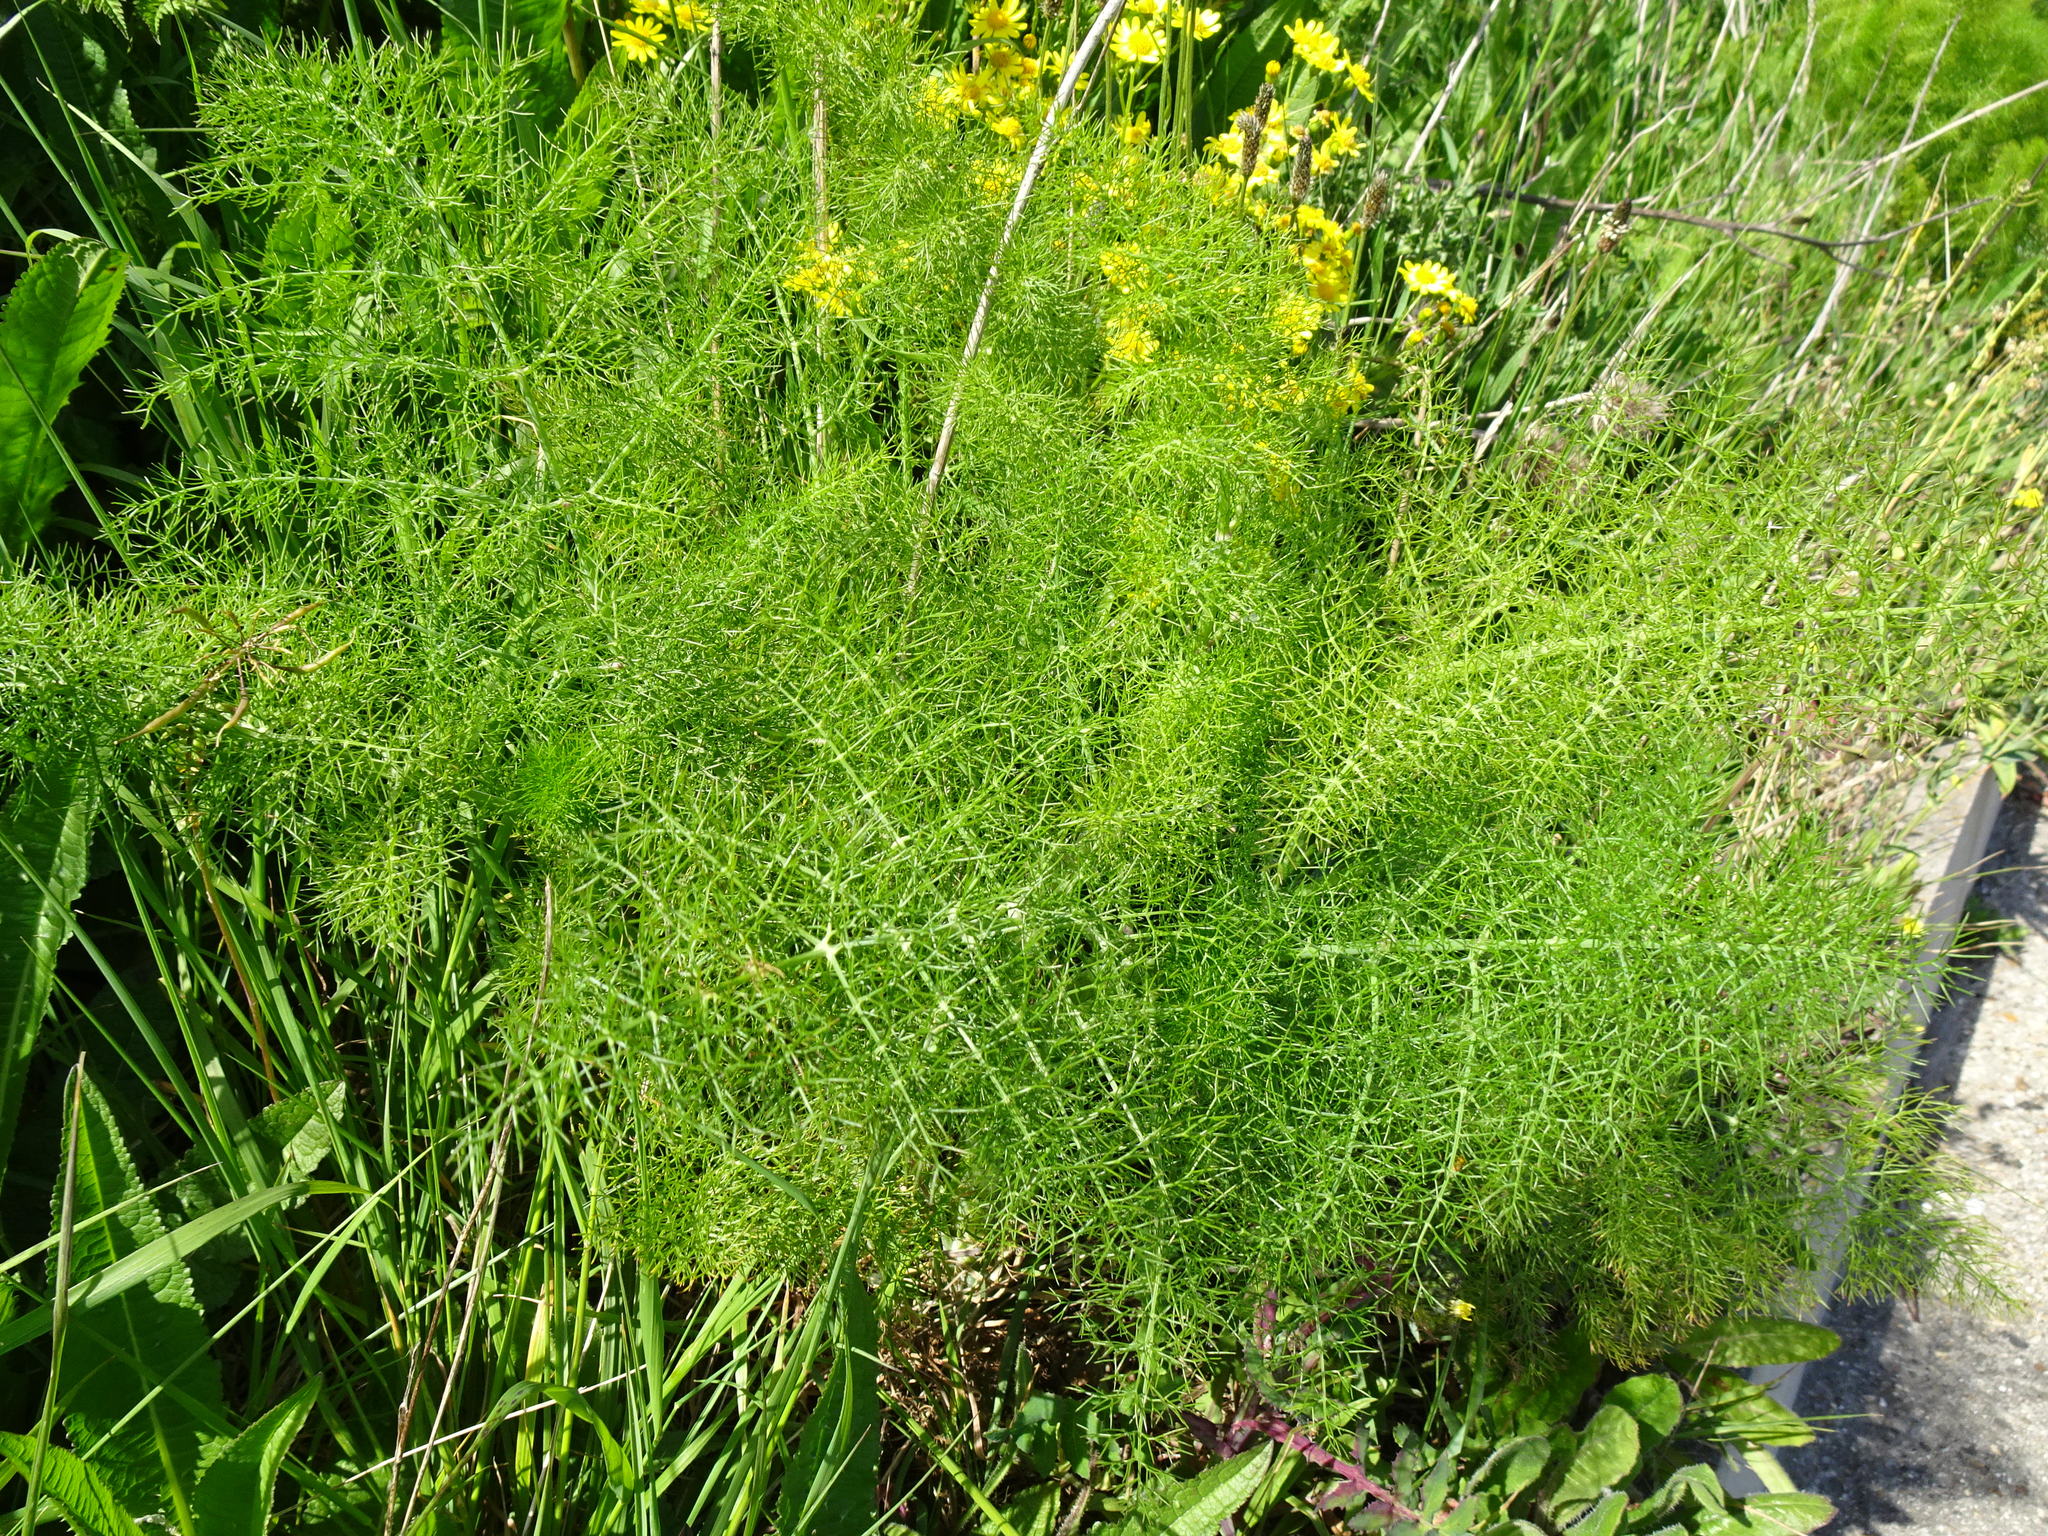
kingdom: Plantae
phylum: Tracheophyta
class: Magnoliopsida
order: Apiales
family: Apiaceae
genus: Foeniculum
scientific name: Foeniculum vulgare
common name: Fennel
